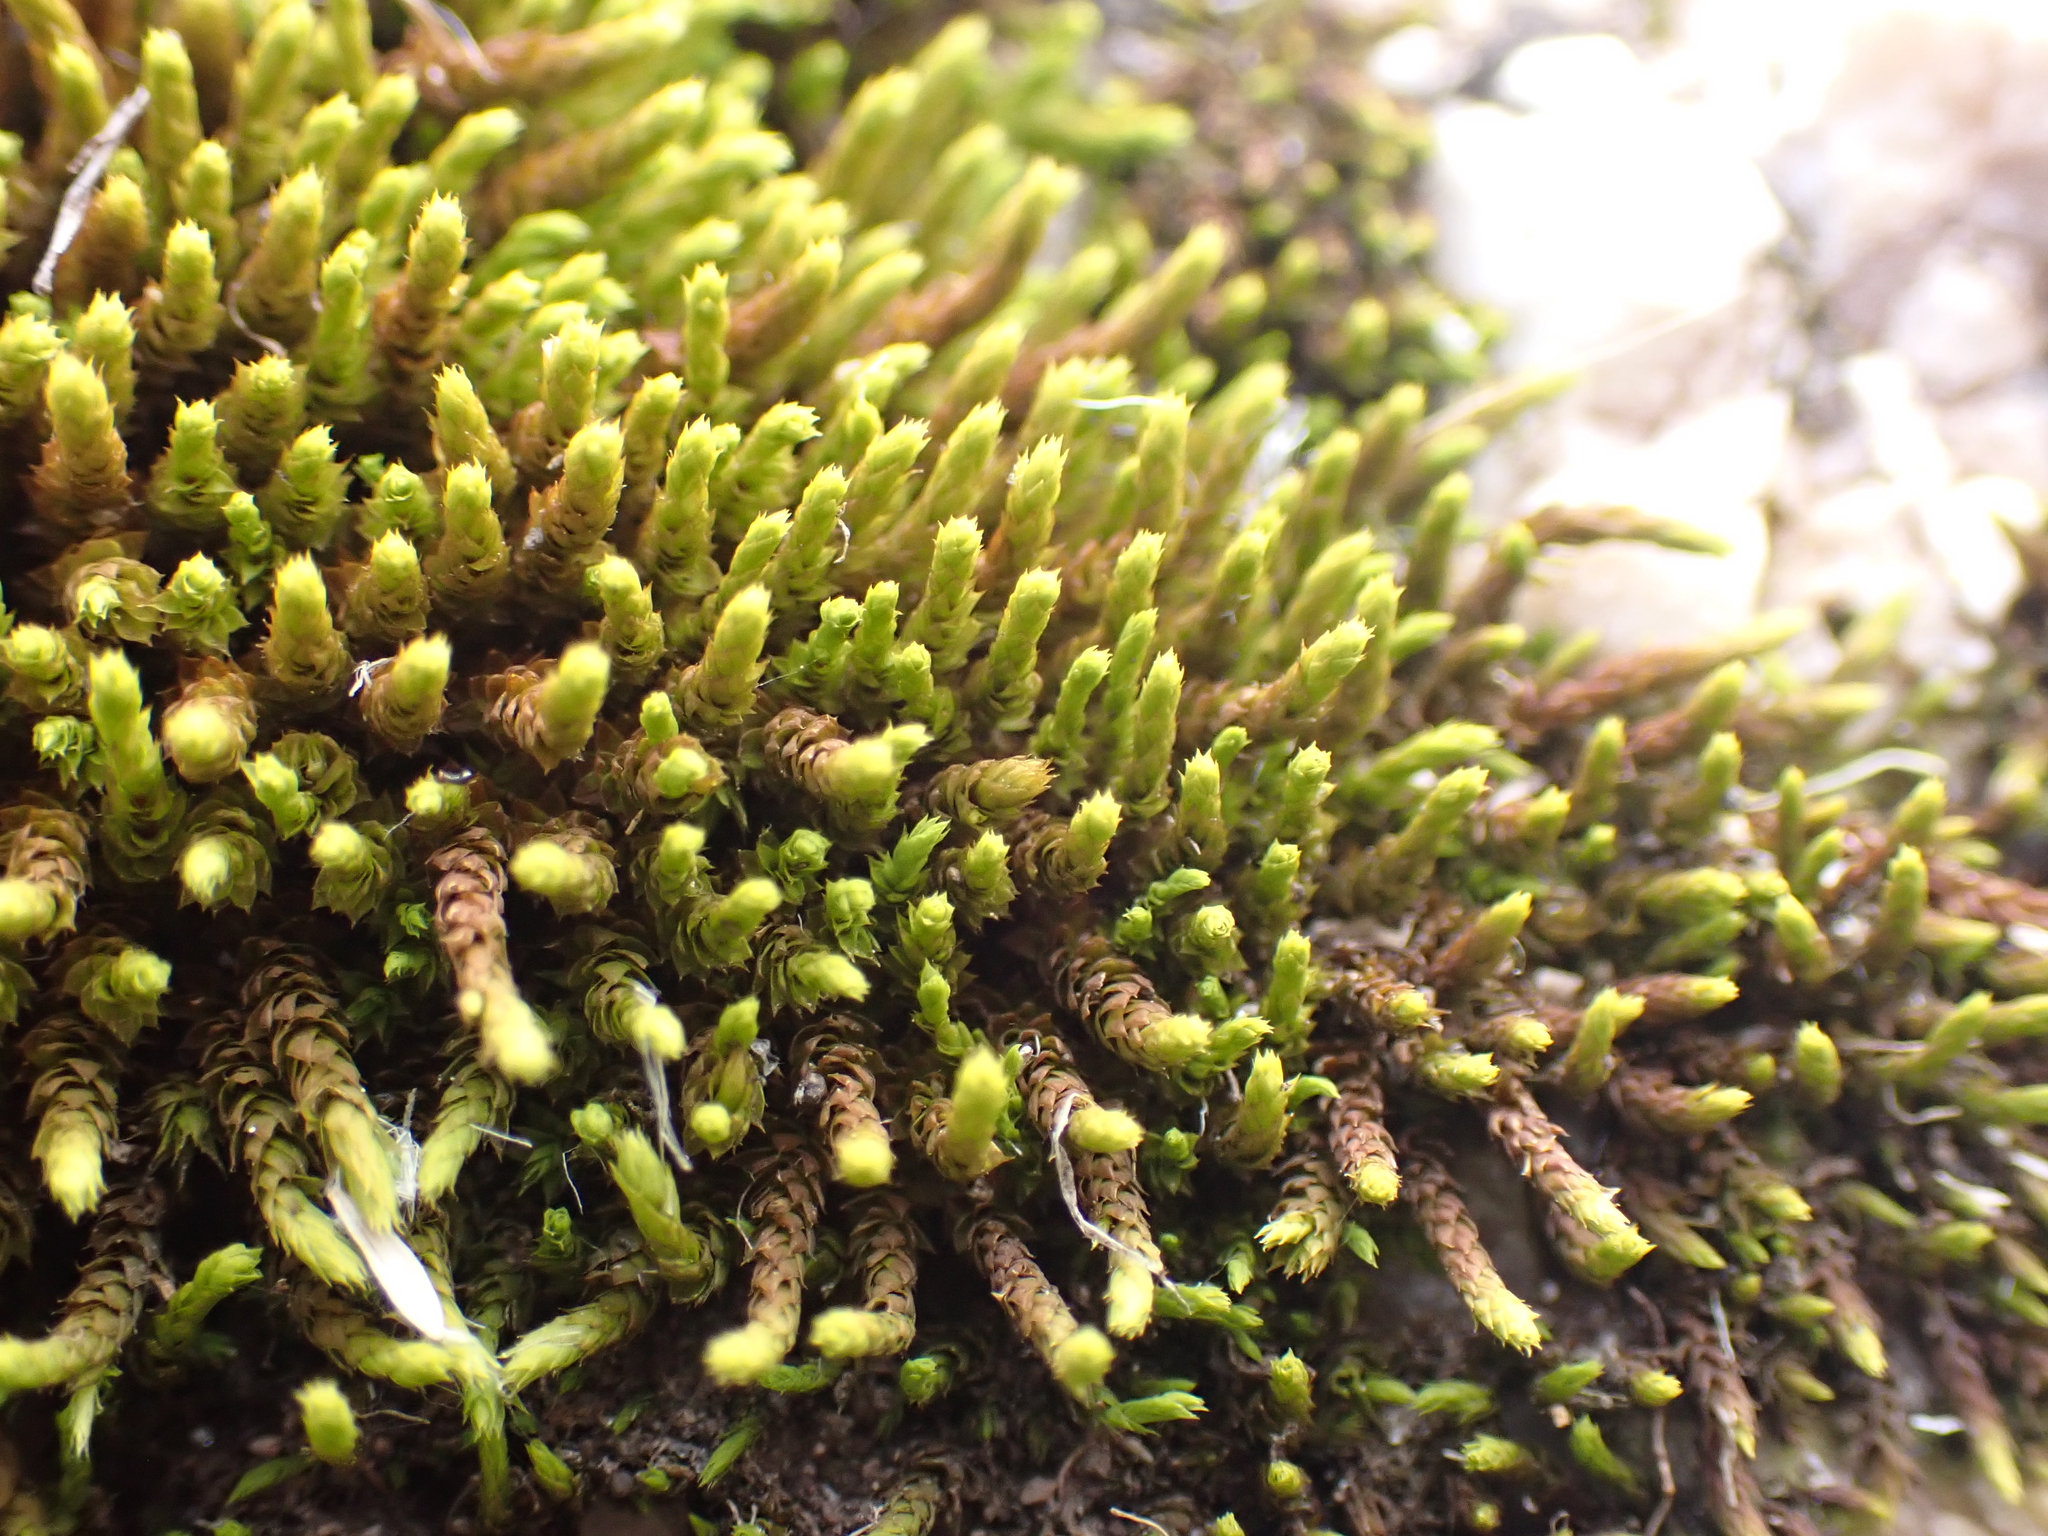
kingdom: Plantae
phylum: Bryophyta
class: Bryopsida
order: Hedwigiales
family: Hedwigiaceae
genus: Hedwigidium
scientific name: Hedwigidium imberbe
